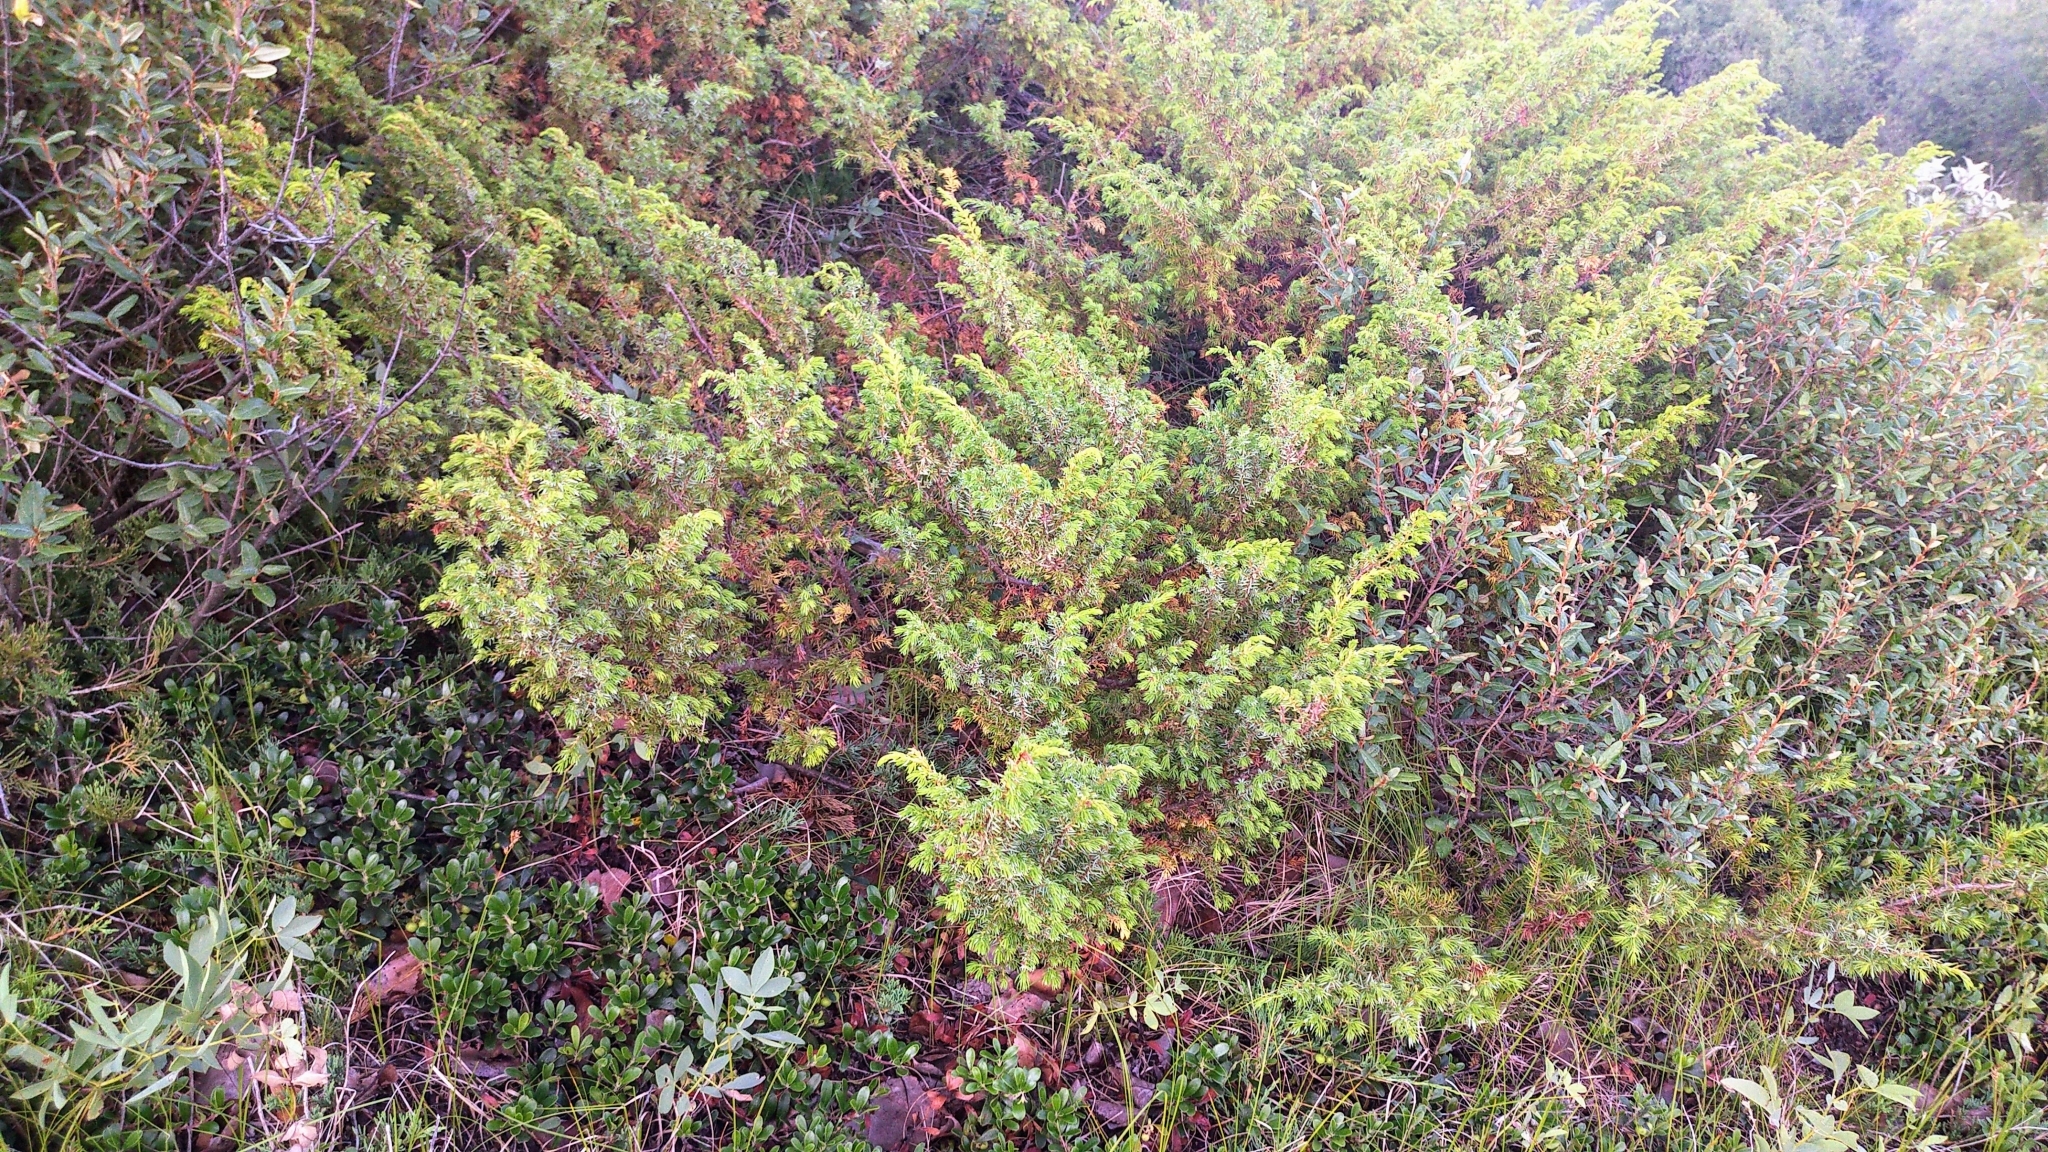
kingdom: Plantae
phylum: Tracheophyta
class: Pinopsida
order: Pinales
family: Cupressaceae
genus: Juniperus
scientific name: Juniperus communis
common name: Common juniper
